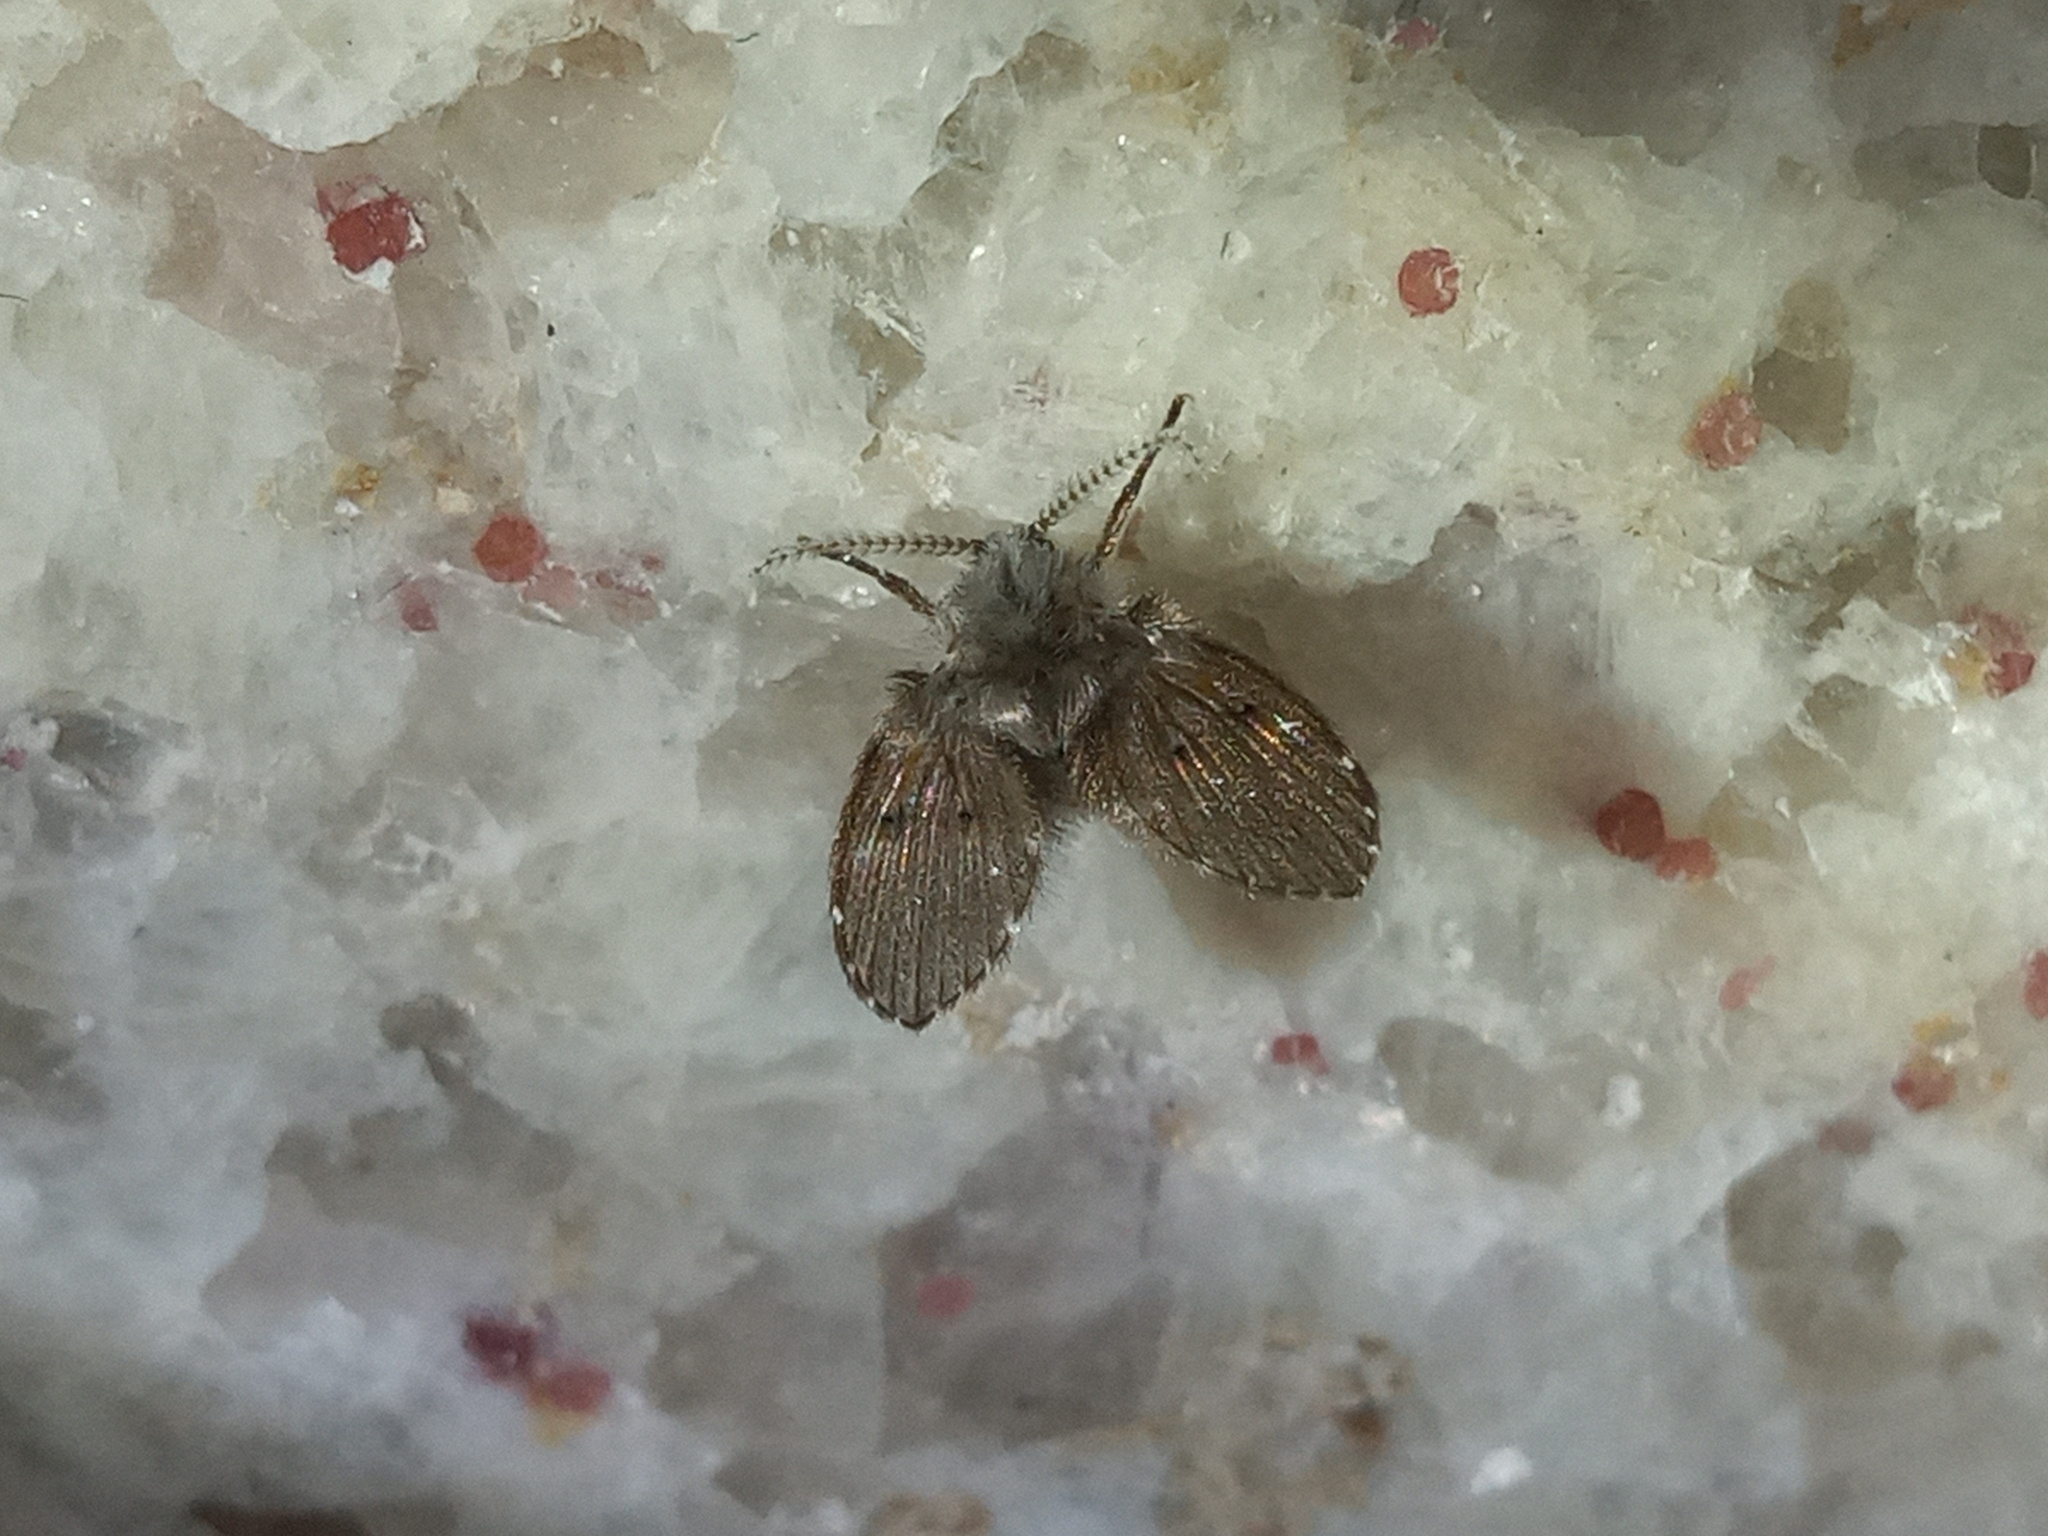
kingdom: Animalia
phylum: Arthropoda
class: Insecta
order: Diptera
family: Psychodidae
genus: Clogmia
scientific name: Clogmia albipunctatus
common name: White-spotted moth fly
